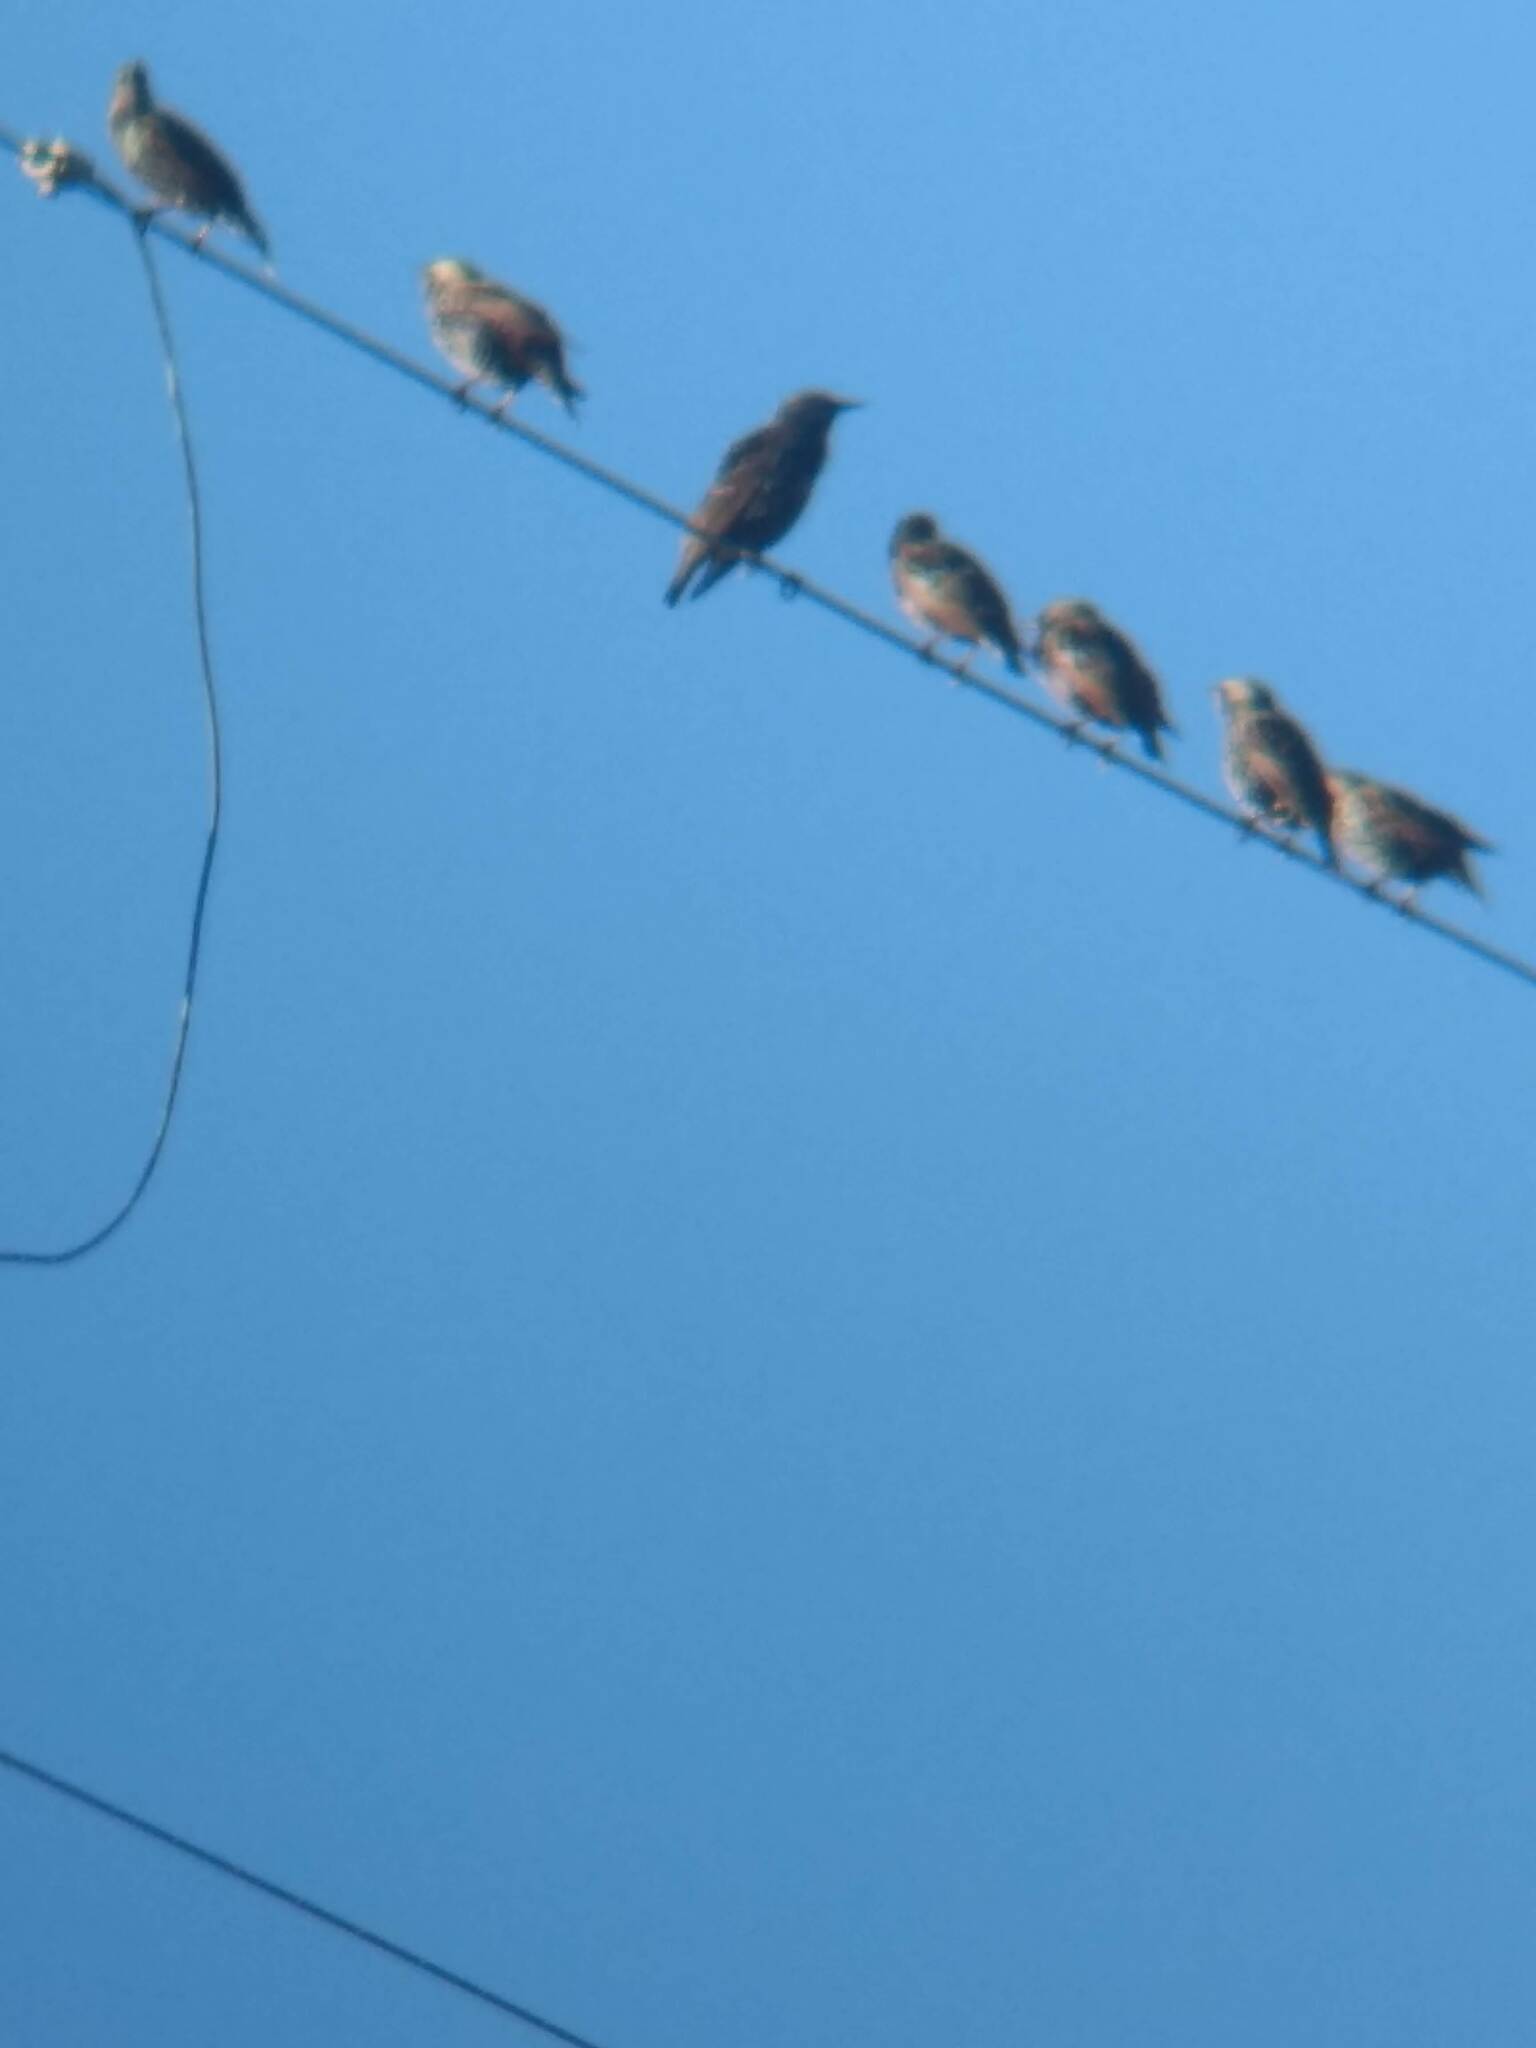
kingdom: Animalia
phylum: Chordata
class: Aves
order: Passeriformes
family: Sturnidae
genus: Sturnus
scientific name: Sturnus vulgaris
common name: Common starling
